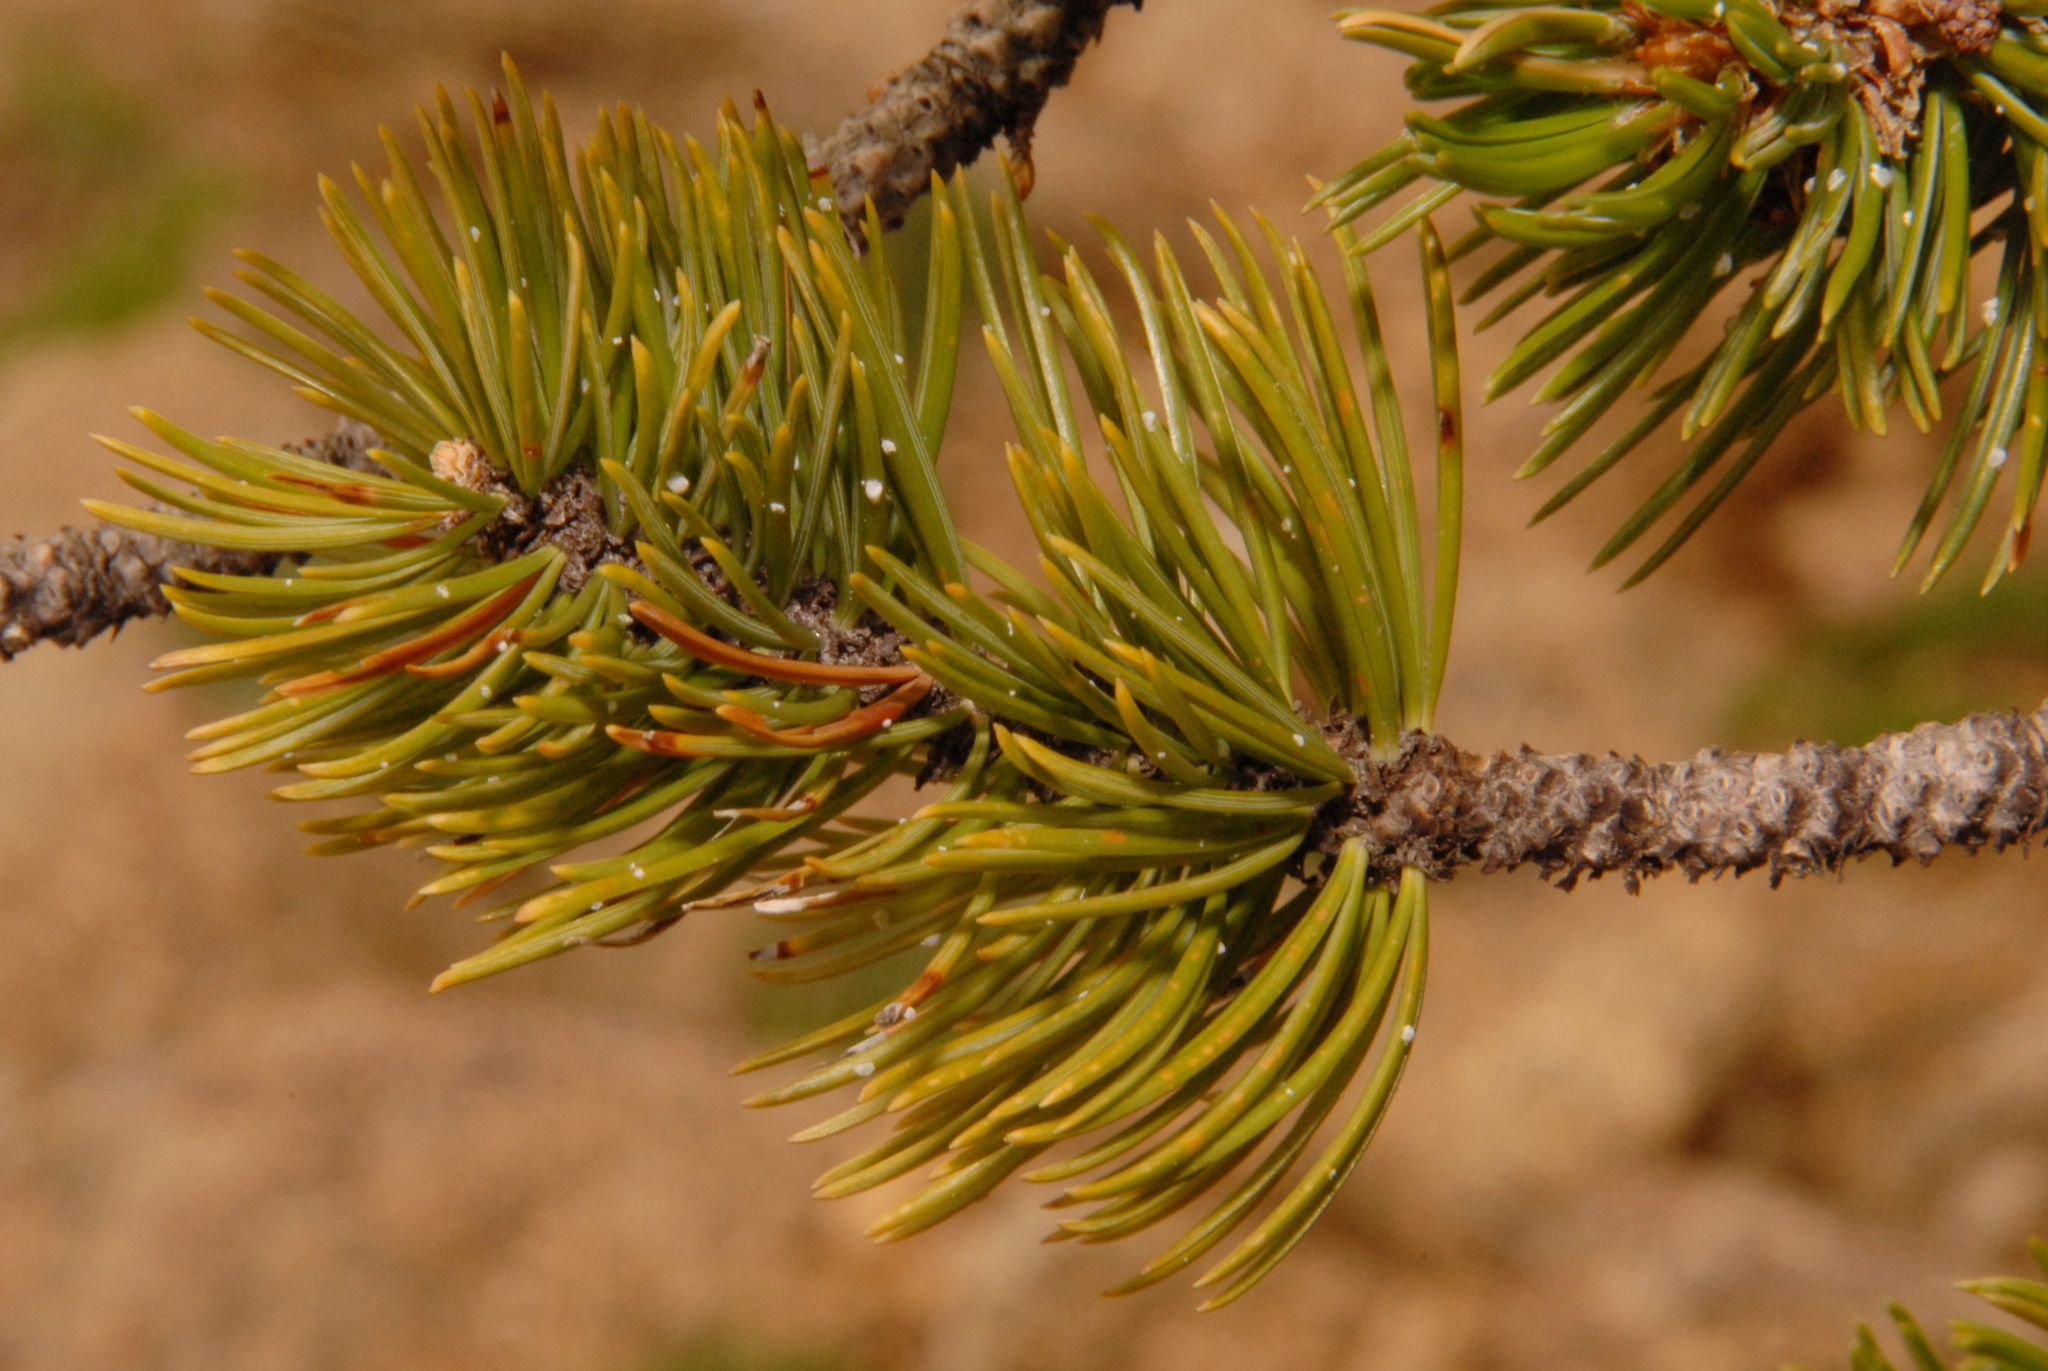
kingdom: Plantae
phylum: Tracheophyta
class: Pinopsida
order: Pinales
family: Pinaceae
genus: Pinus
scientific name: Pinus aristata
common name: Colorado bristlecone pine
